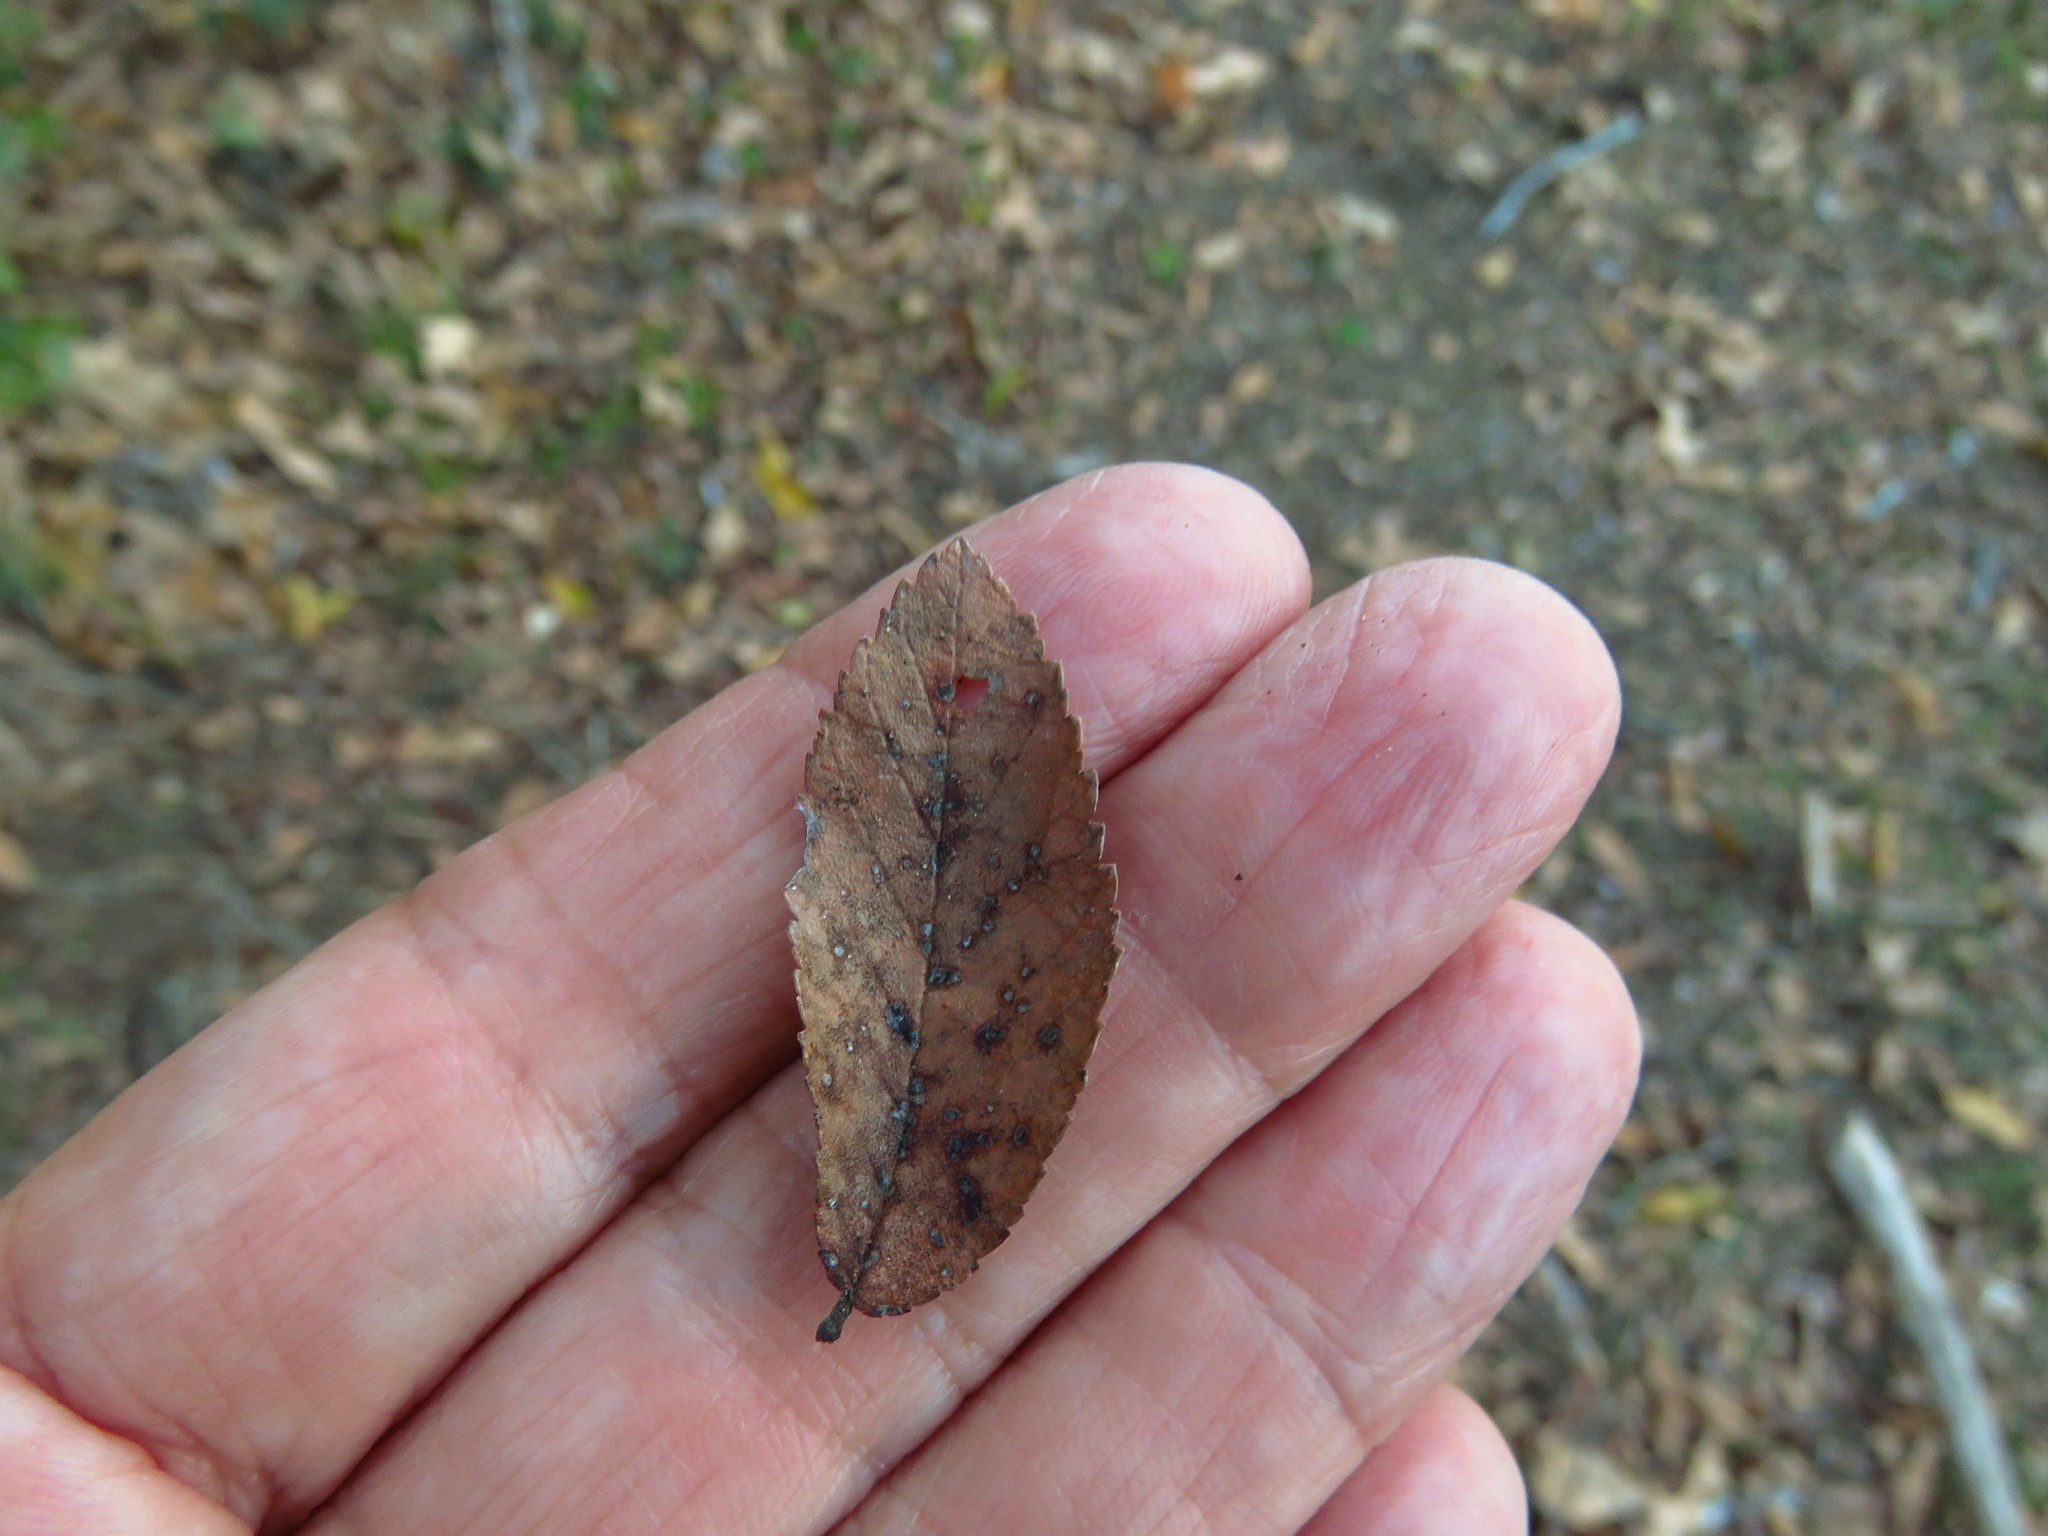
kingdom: Plantae
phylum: Tracheophyta
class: Magnoliopsida
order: Rosales
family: Ulmaceae
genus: Ulmus
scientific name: Ulmus alata
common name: Winged elm
